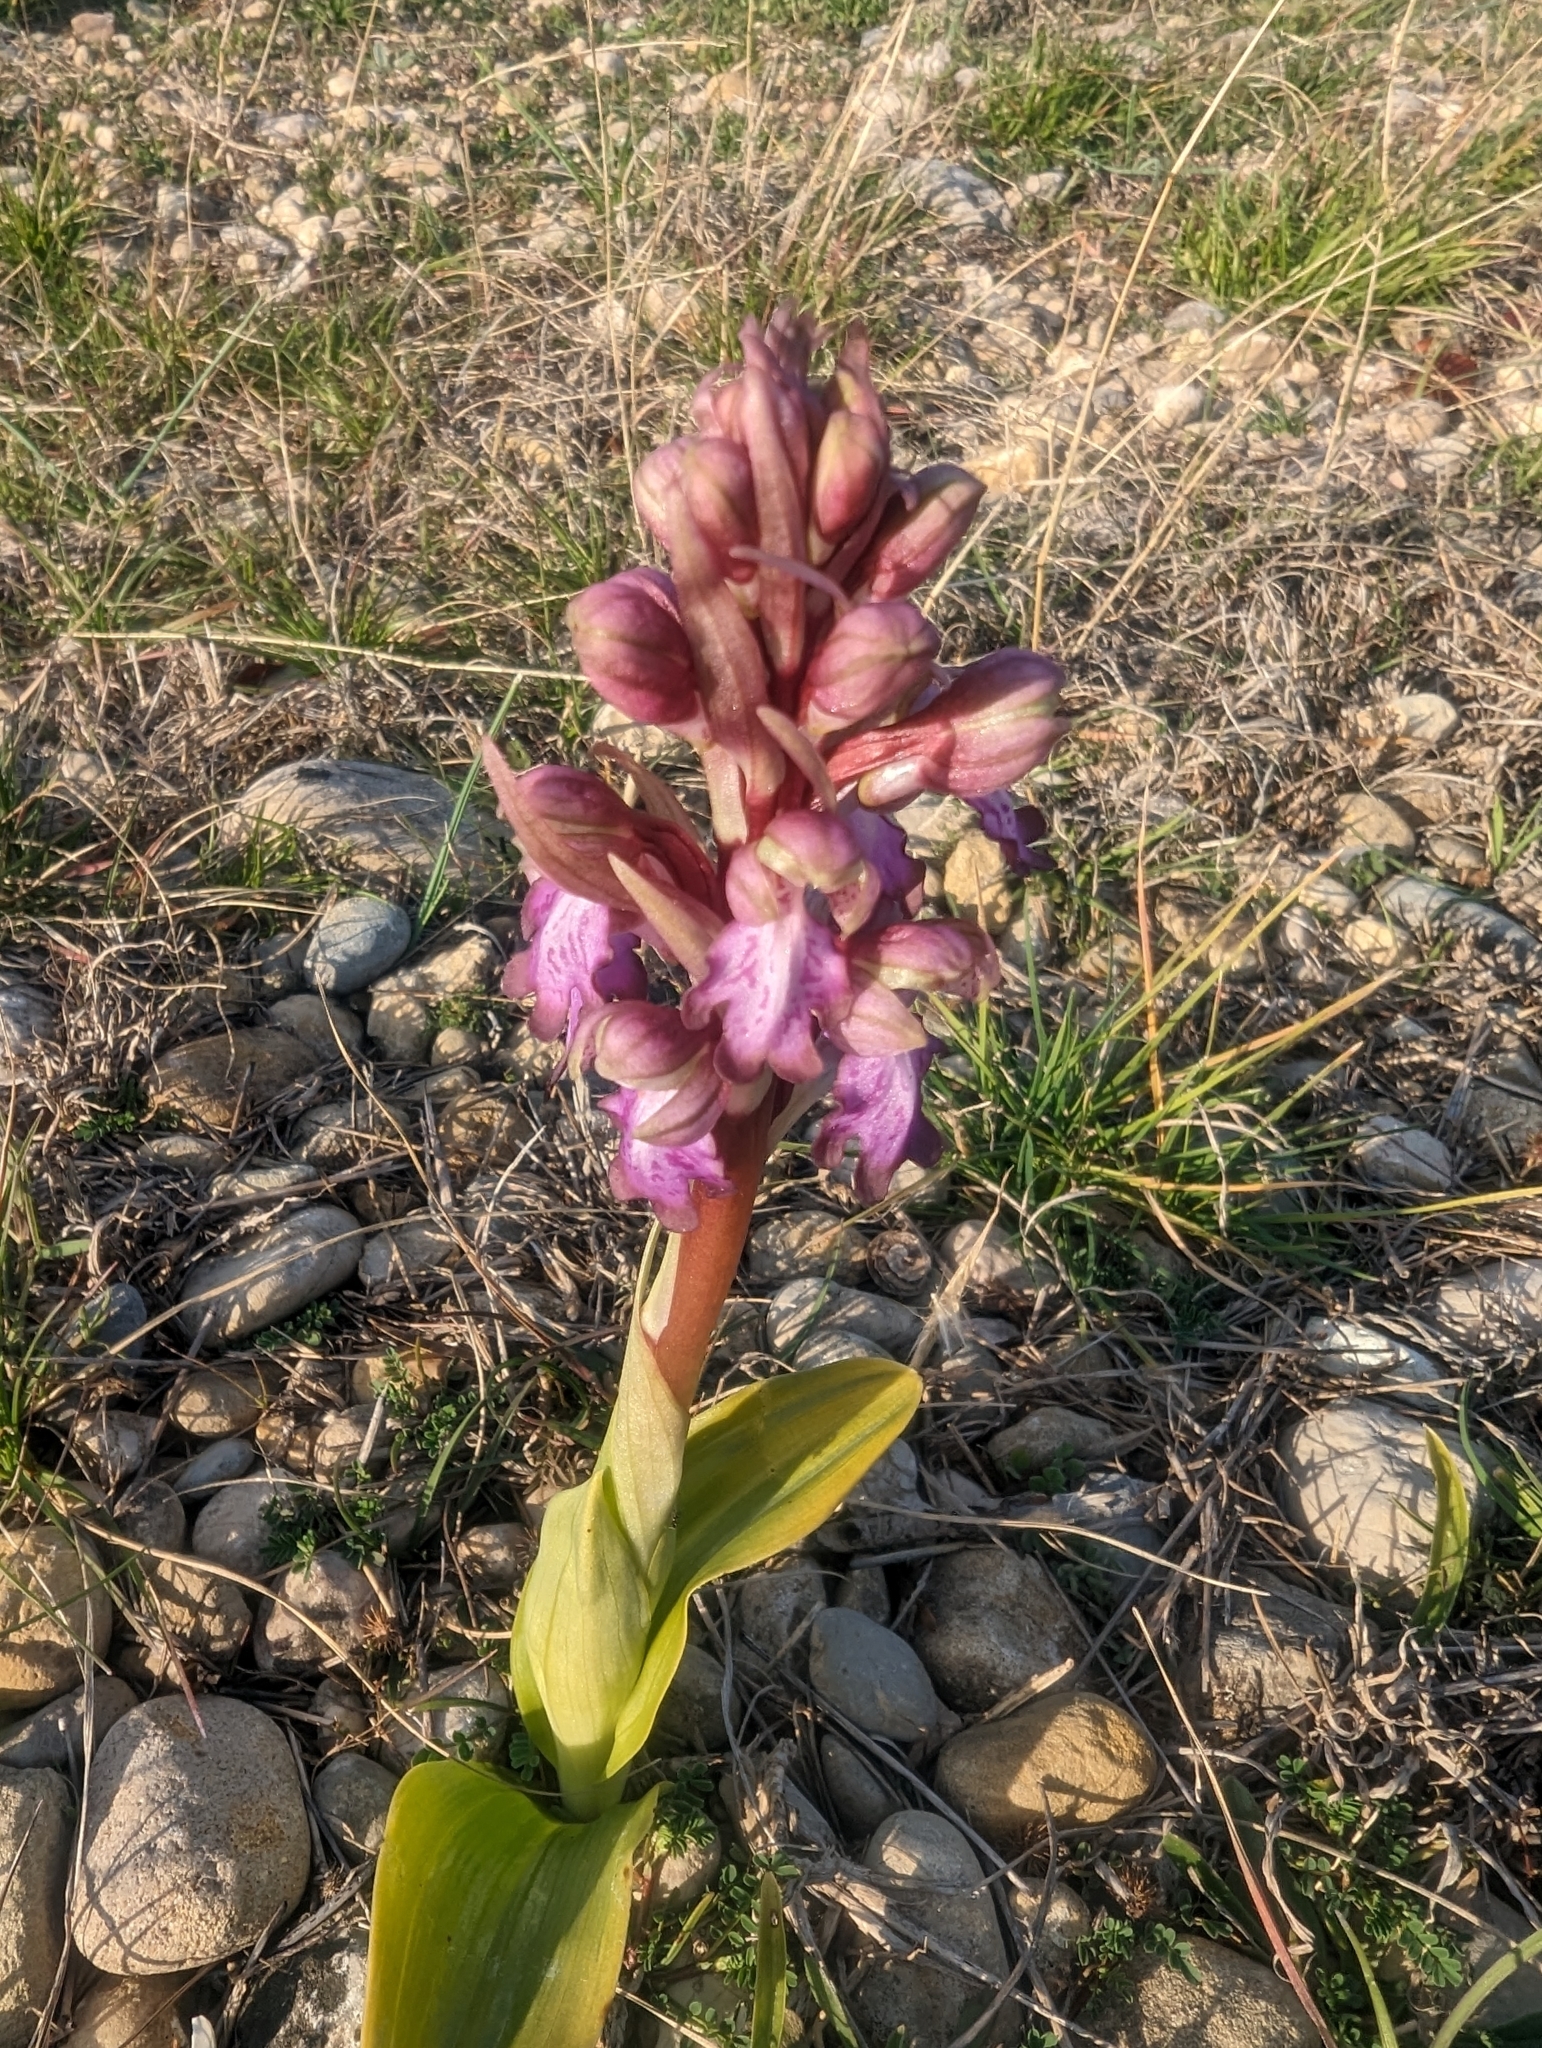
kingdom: Plantae
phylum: Tracheophyta
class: Liliopsida
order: Asparagales
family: Orchidaceae
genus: Himantoglossum
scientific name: Himantoglossum robertianum
